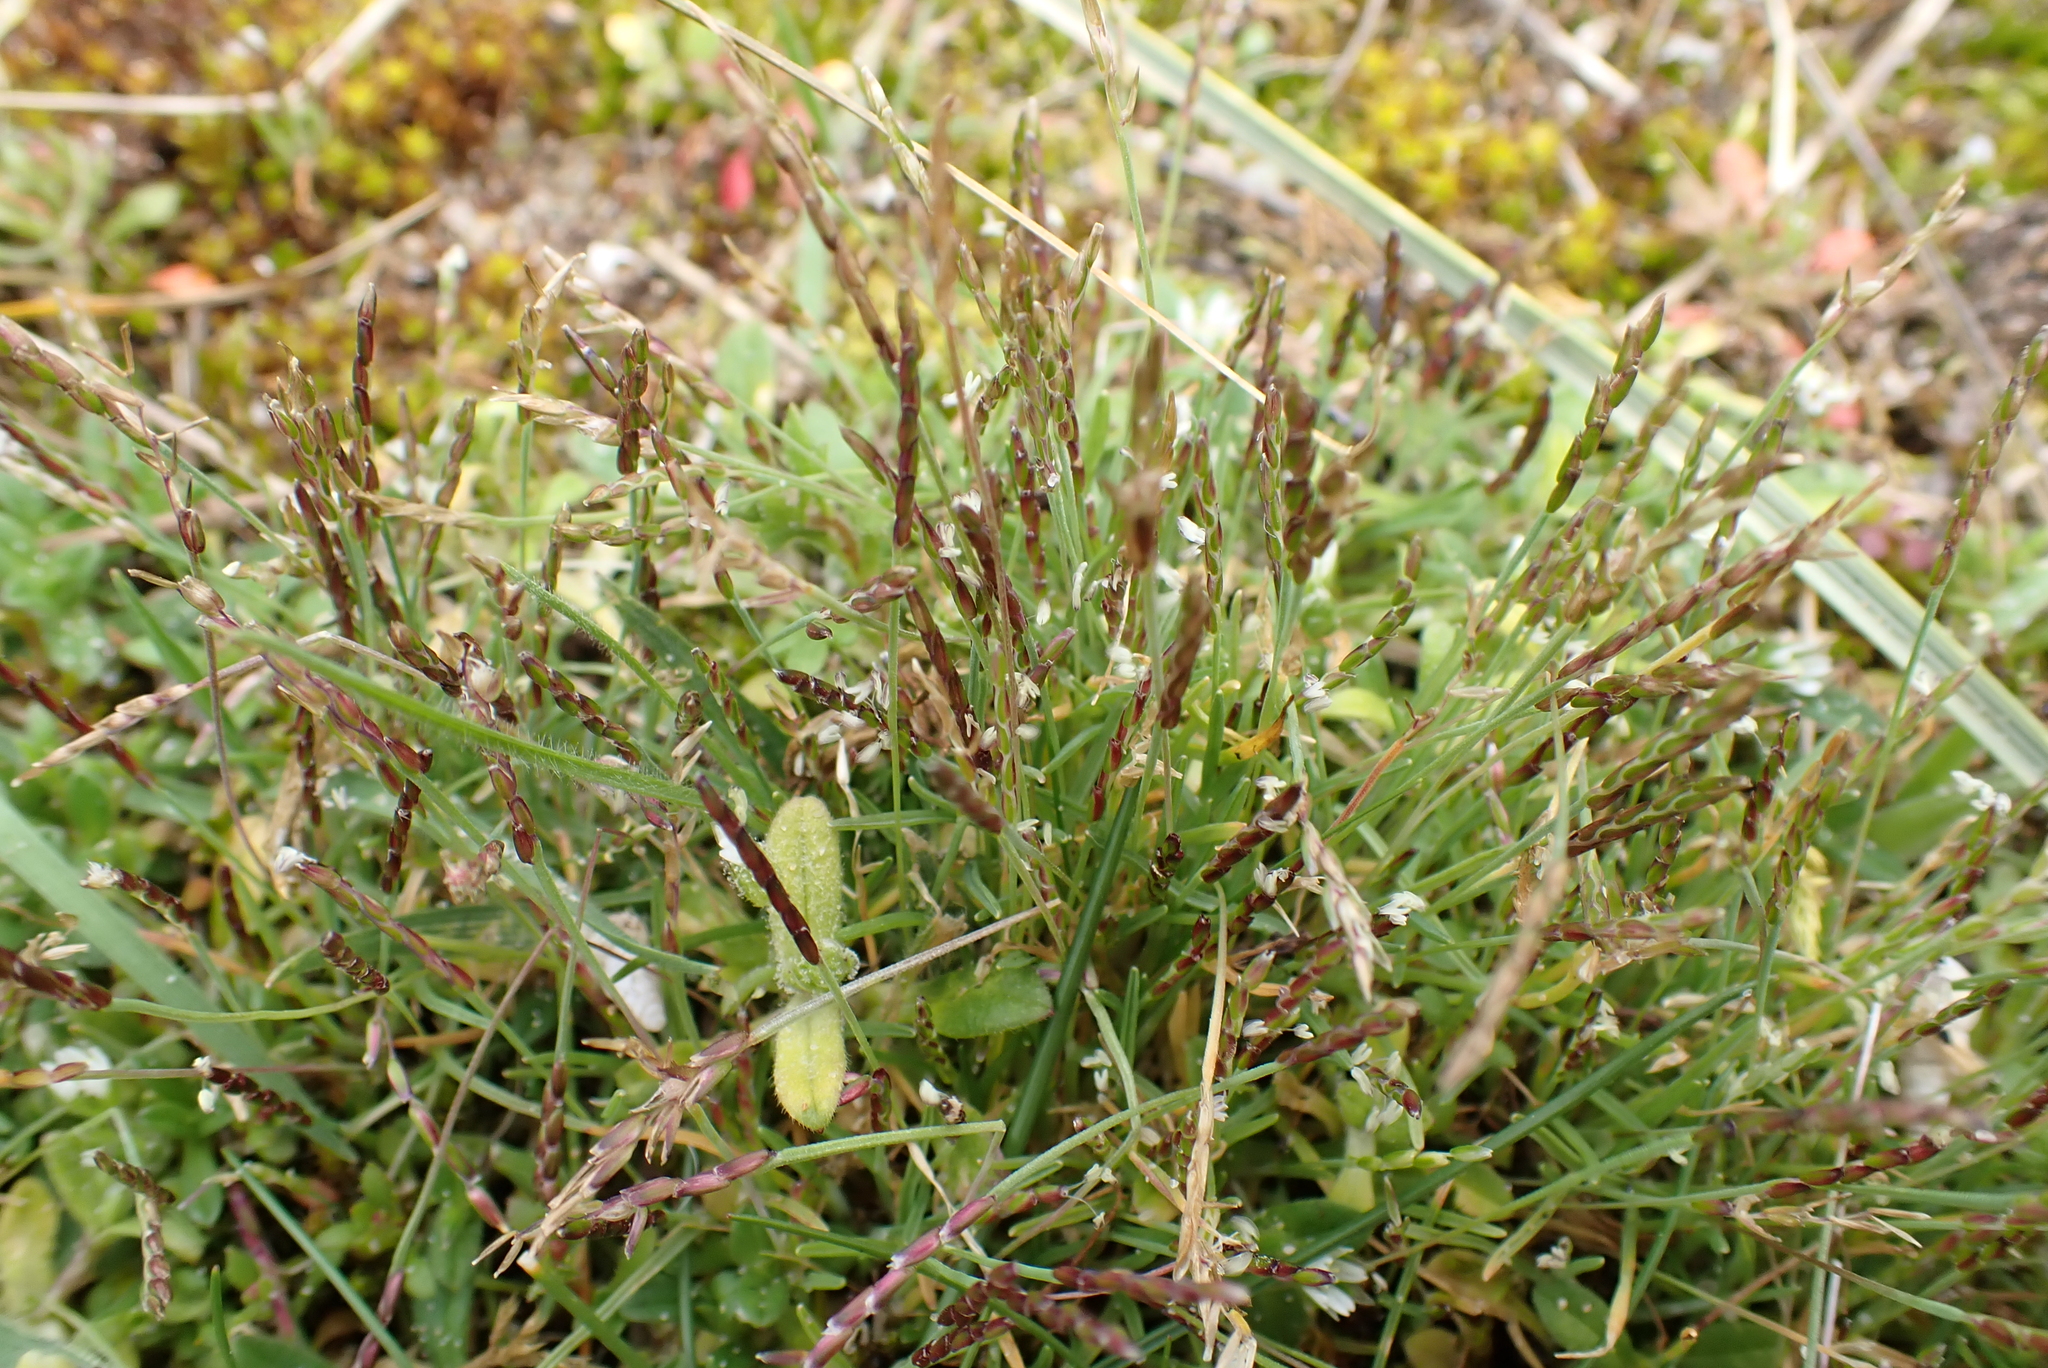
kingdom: Plantae
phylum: Tracheophyta
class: Liliopsida
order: Poales
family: Poaceae
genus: Mibora
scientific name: Mibora minima
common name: Early sand-grass
